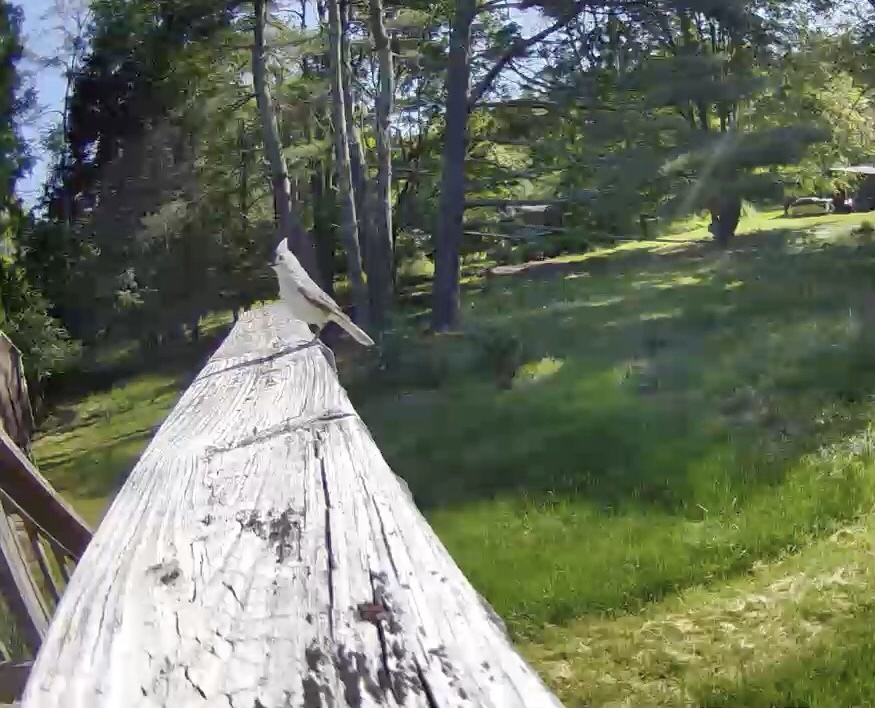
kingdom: Animalia
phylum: Chordata
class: Aves
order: Passeriformes
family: Paridae
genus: Baeolophus
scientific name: Baeolophus bicolor
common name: Tufted titmouse
